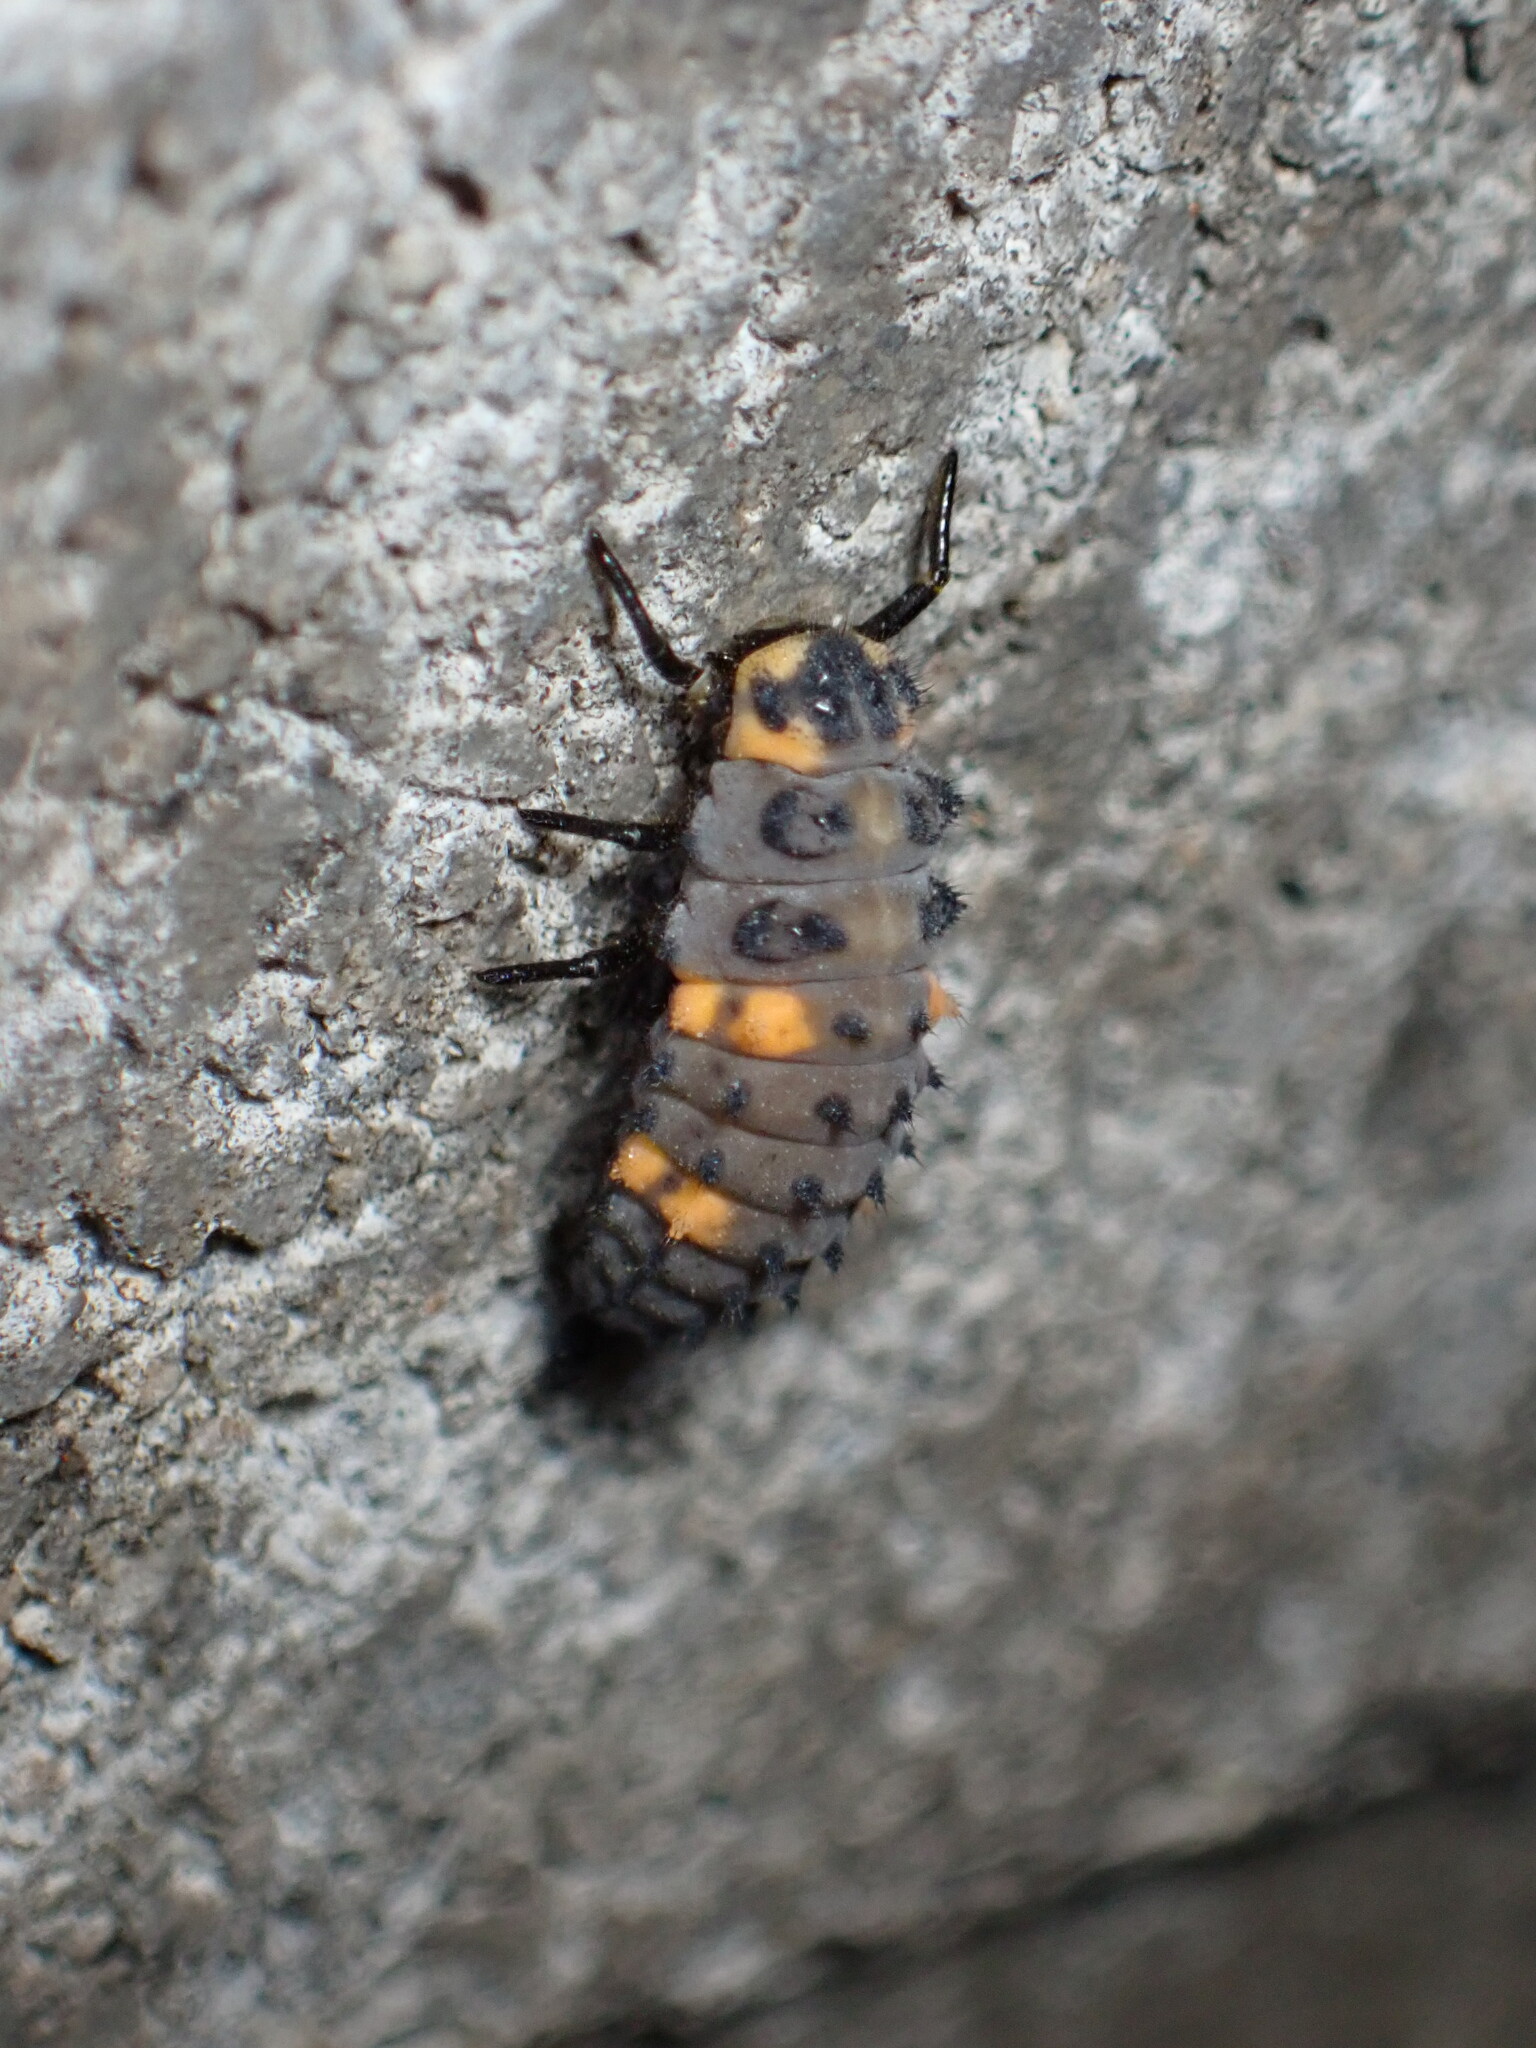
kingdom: Animalia
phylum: Arthropoda
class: Insecta
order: Coleoptera
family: Coccinellidae
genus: Coccinella
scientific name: Coccinella septempunctata
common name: Sevenspotted lady beetle
